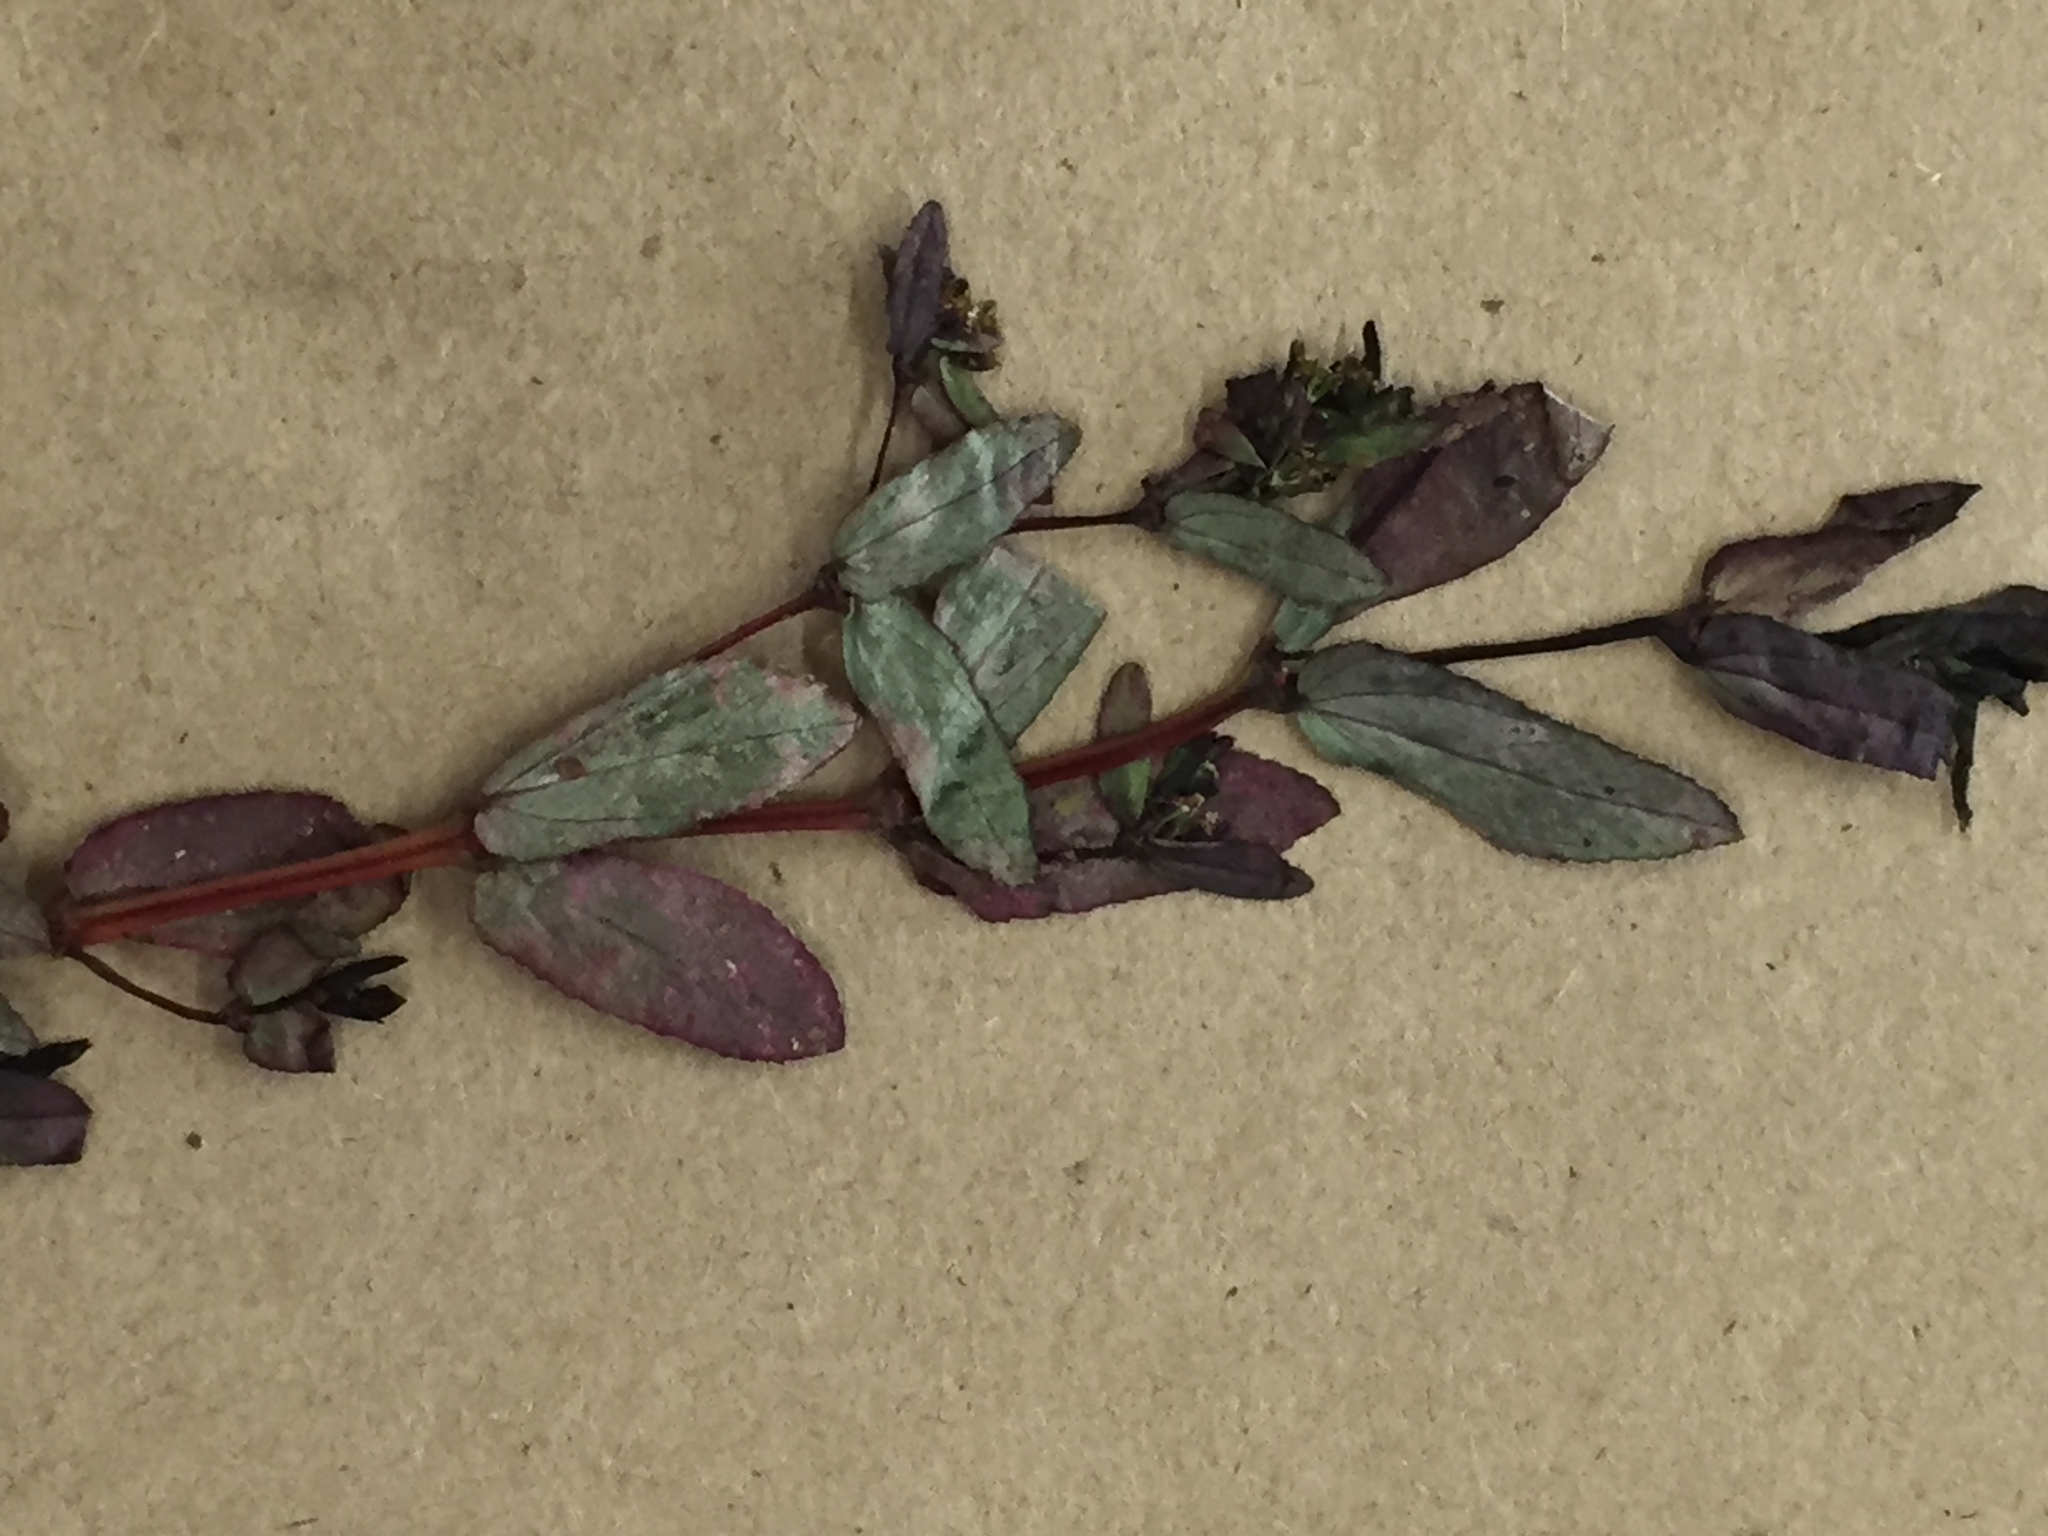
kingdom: Plantae
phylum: Tracheophyta
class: Magnoliopsida
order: Malpighiales
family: Euphorbiaceae
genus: Euphorbia
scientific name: Euphorbia hyssopifolia
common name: Hyssopleaf sandmat
